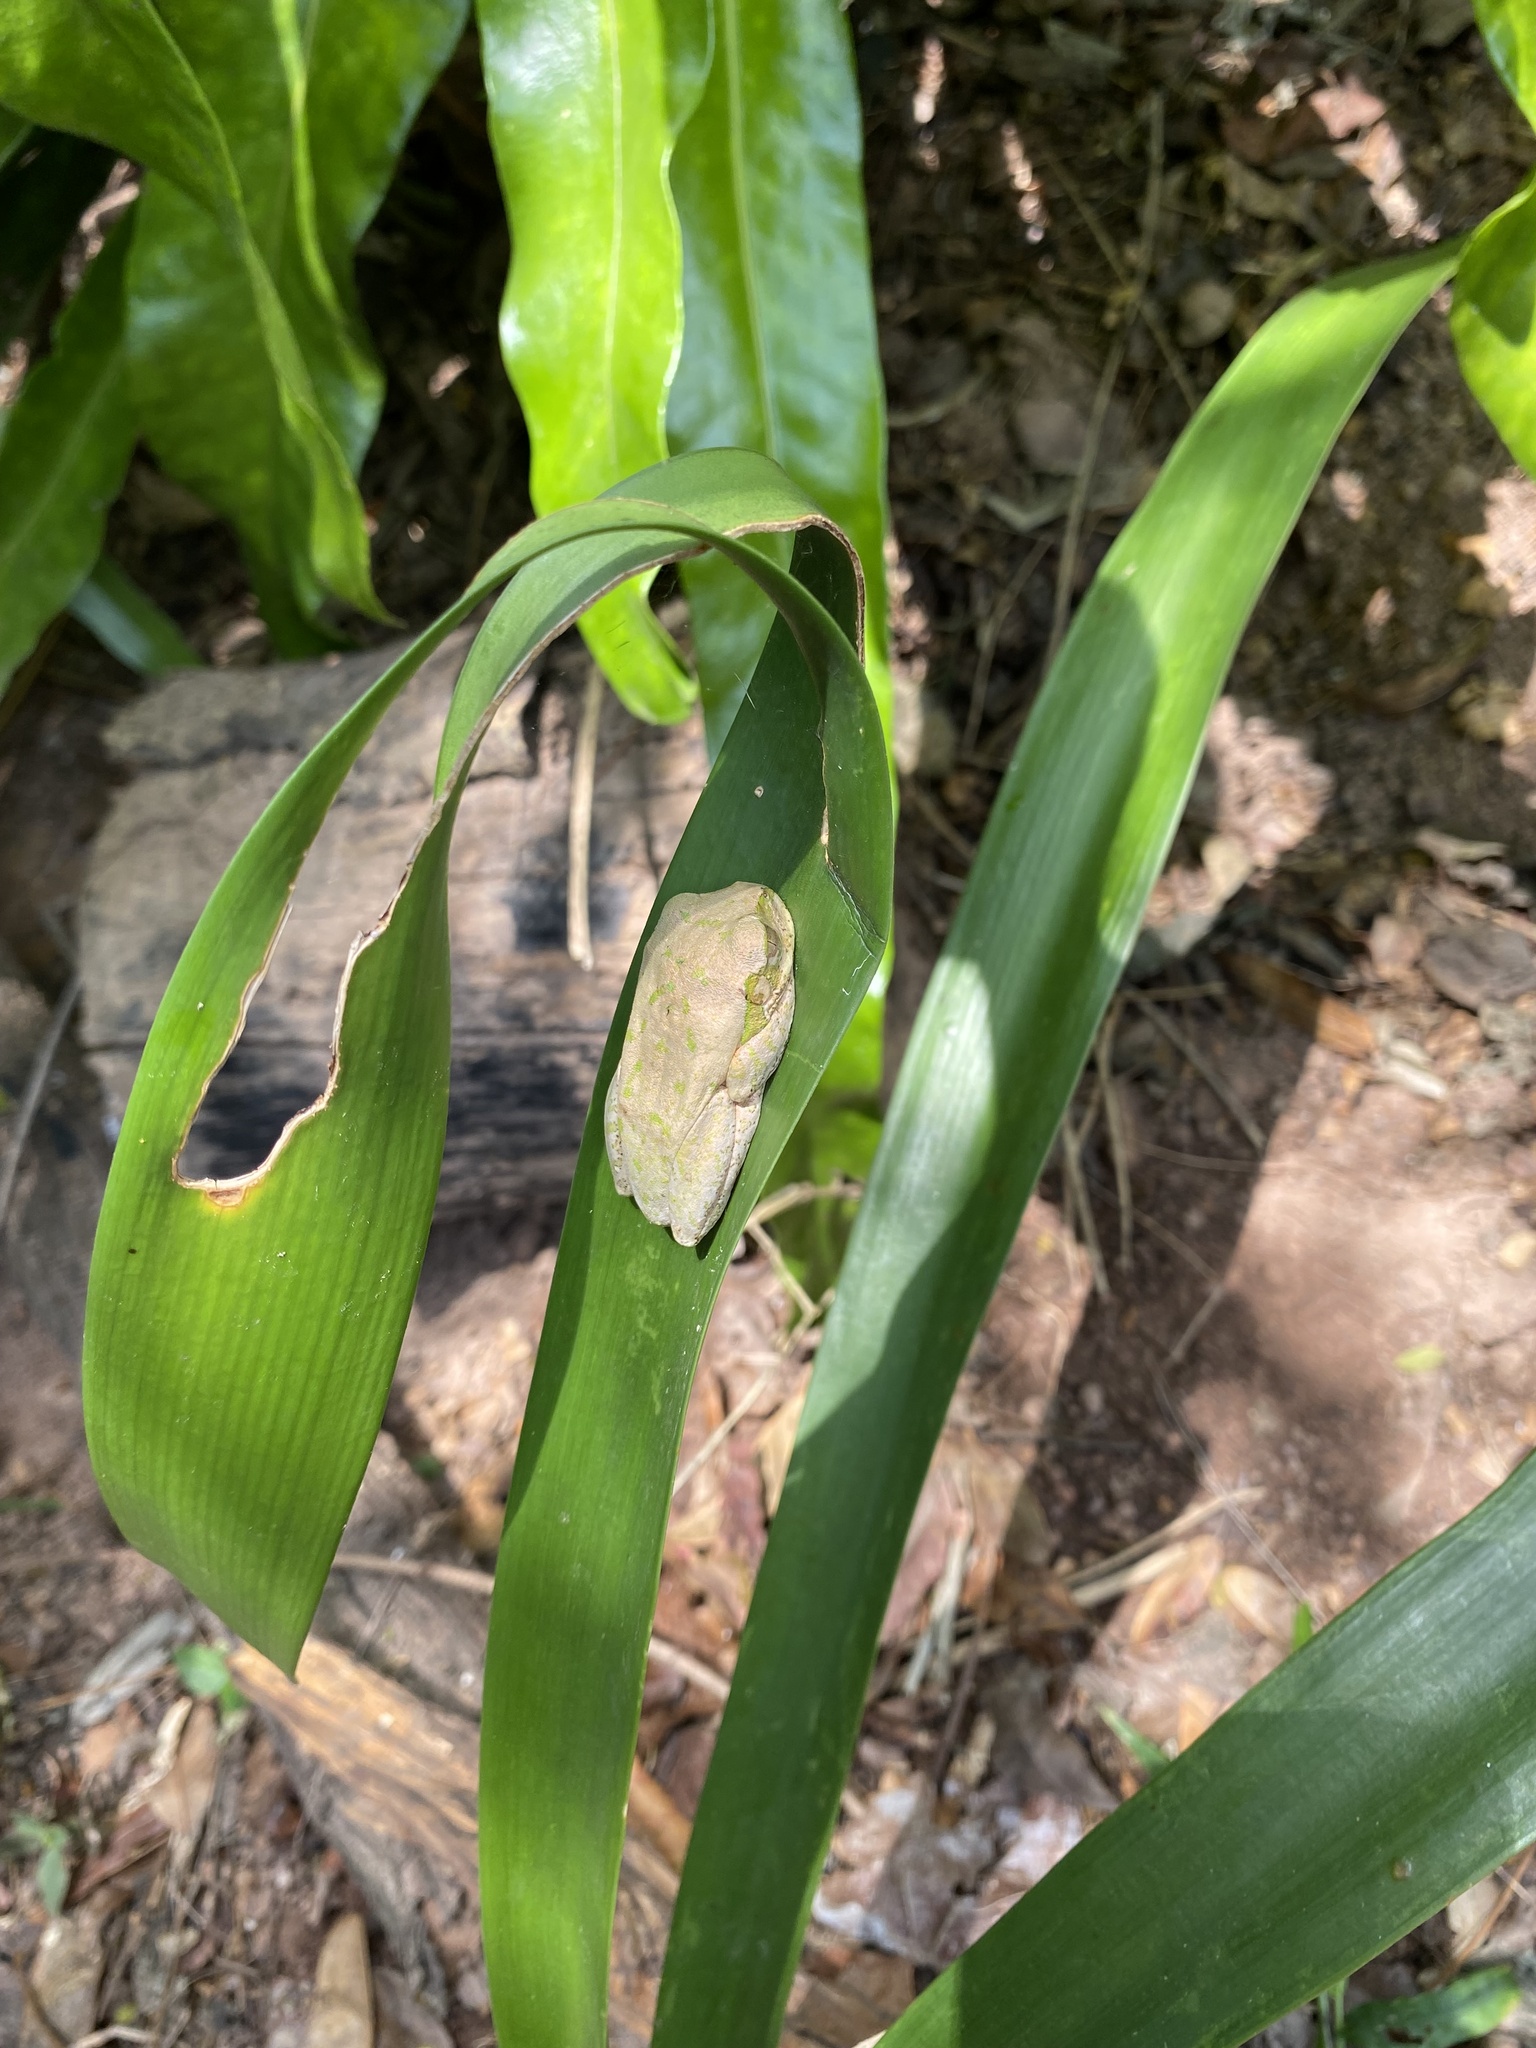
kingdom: Animalia
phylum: Chordata
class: Amphibia
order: Anura
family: Arthroleptidae
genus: Leptopelis
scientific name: Leptopelis natalensis
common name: Natal tree frog
